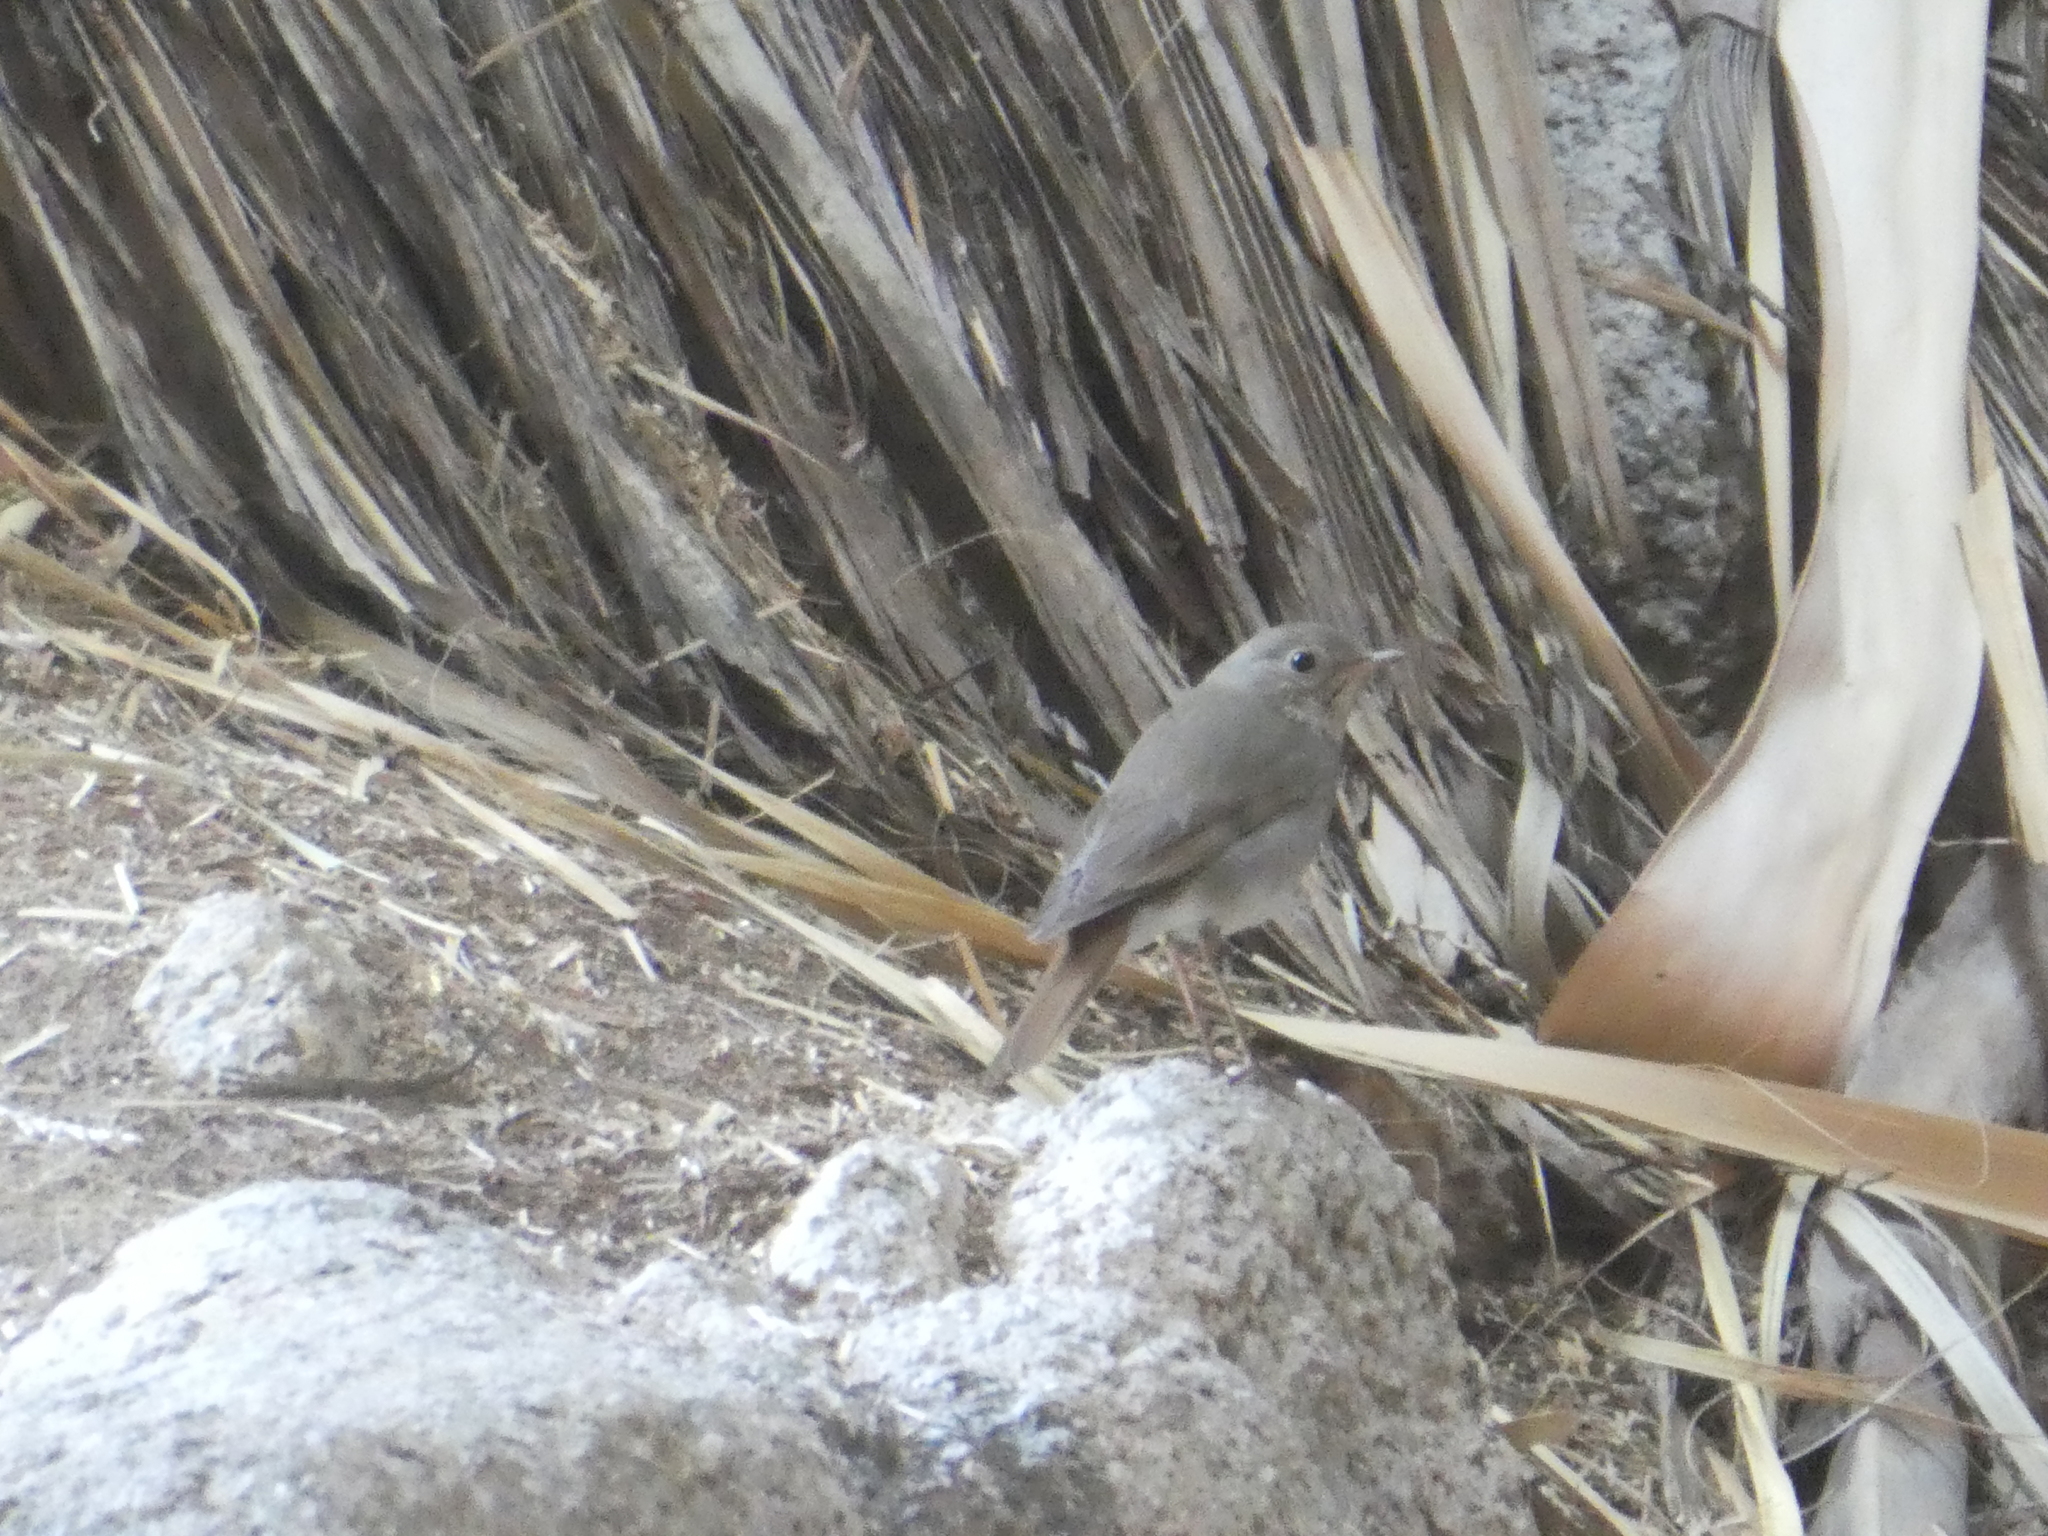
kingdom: Animalia
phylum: Chordata
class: Aves
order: Passeriformes
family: Turdidae
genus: Catharus
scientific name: Catharus guttatus
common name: Hermit thrush
